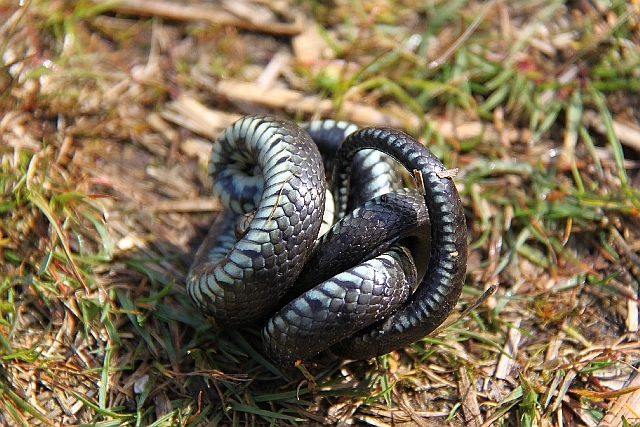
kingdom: Animalia
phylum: Chordata
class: Squamata
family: Colubridae
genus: Natrix
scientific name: Natrix helvetica
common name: Banded grass snake
